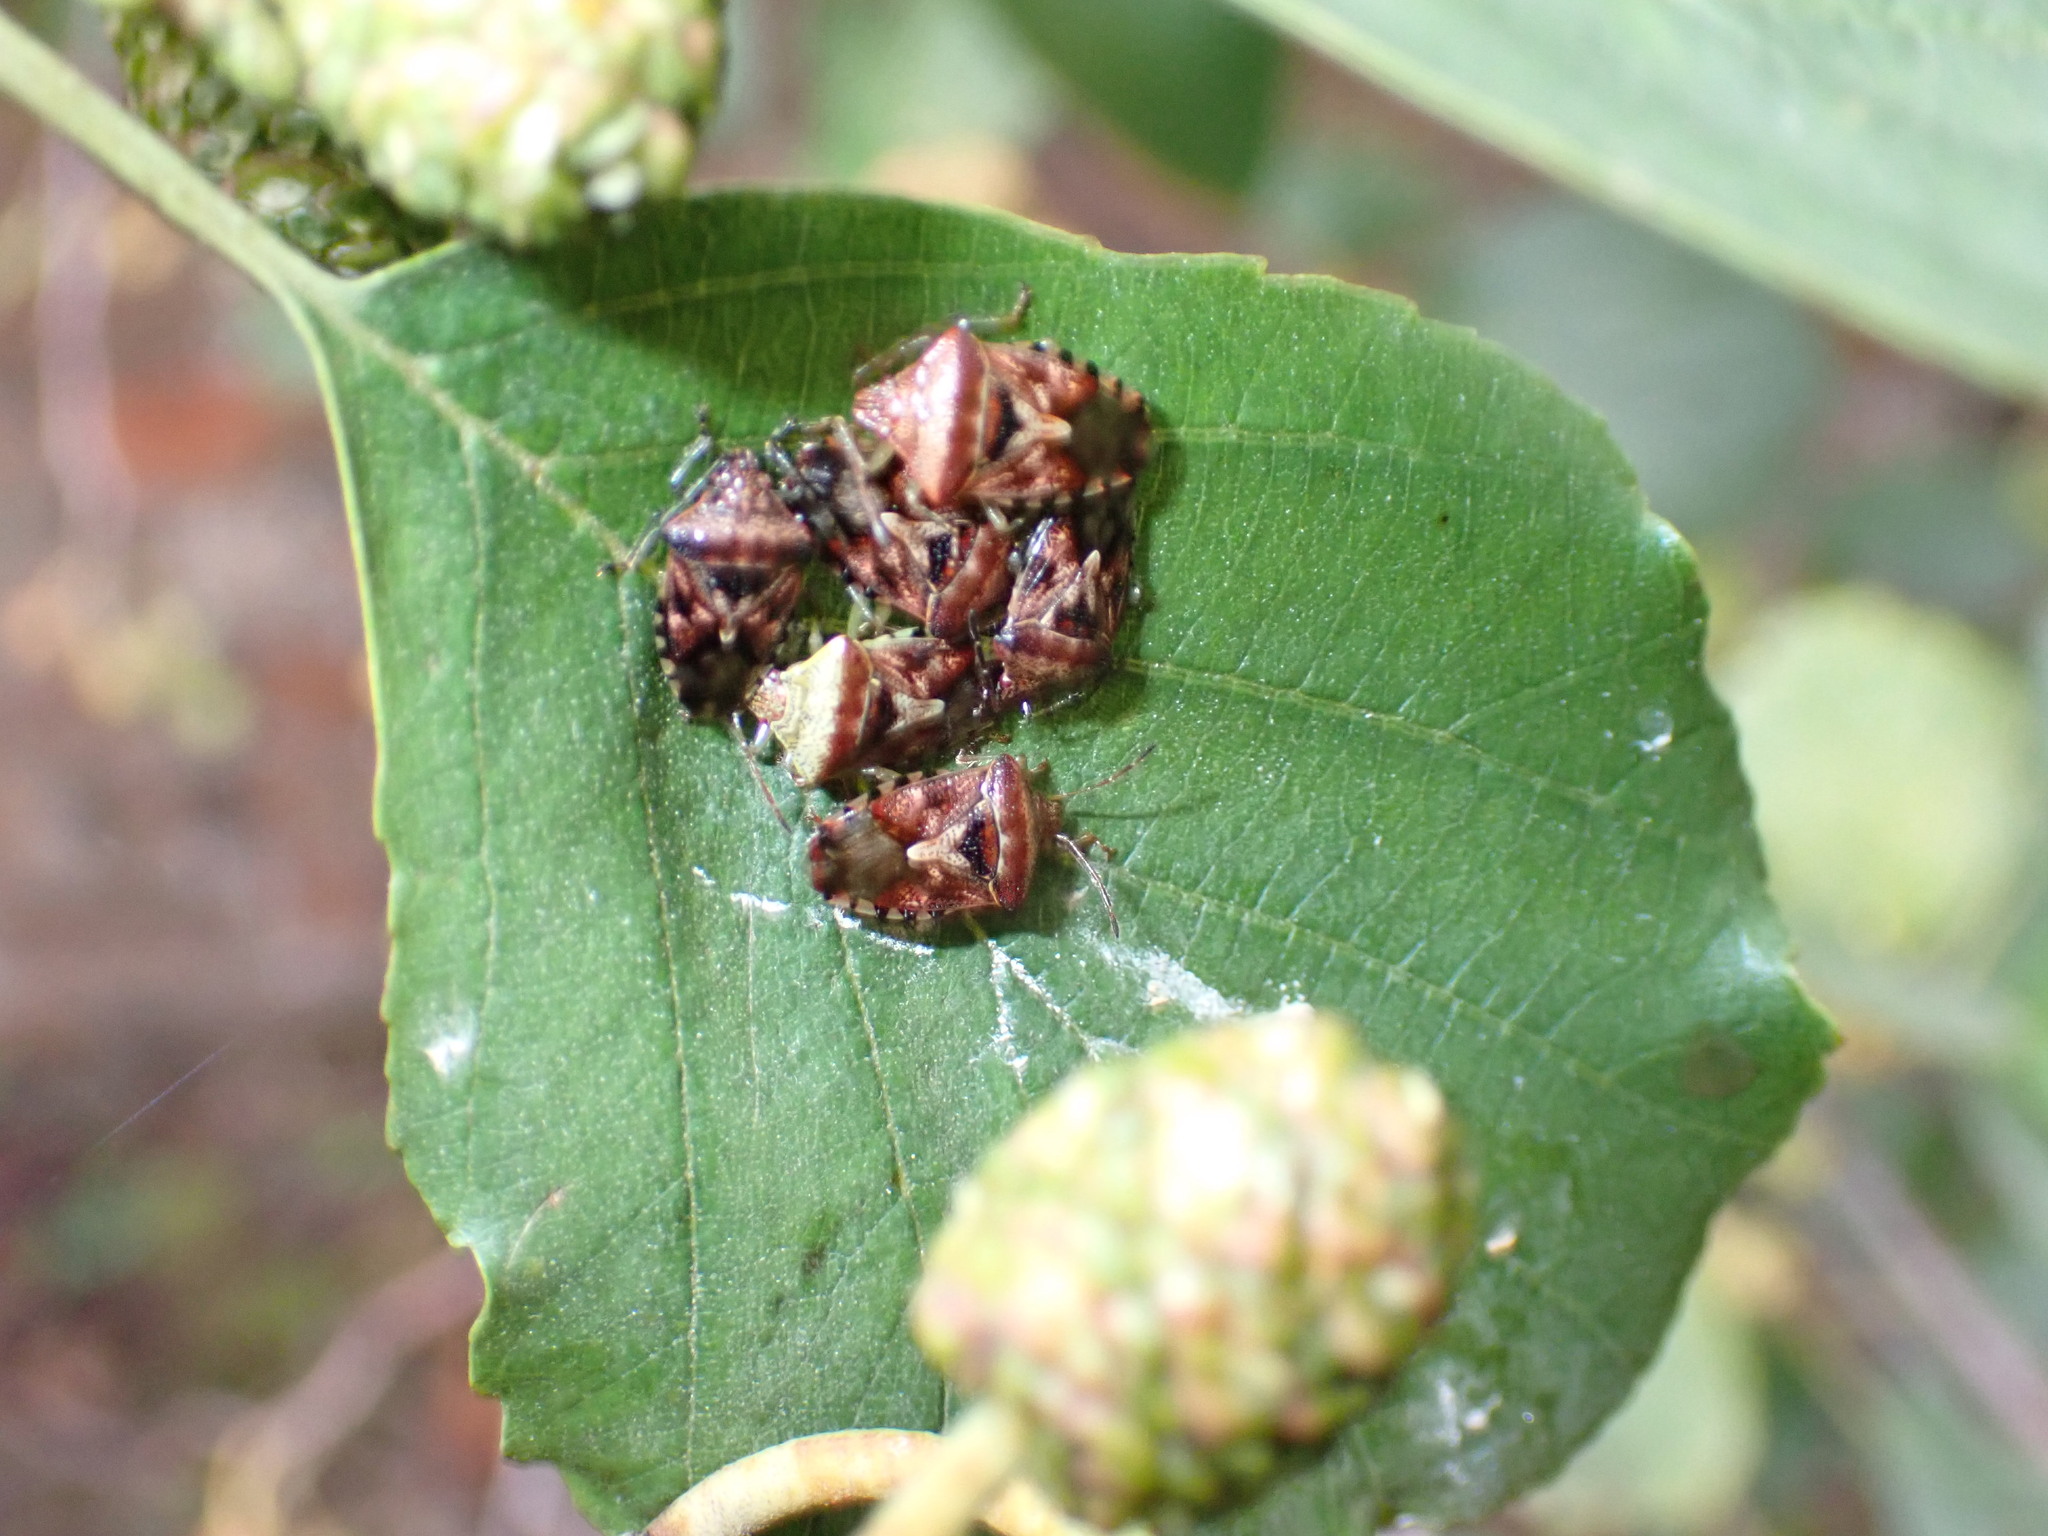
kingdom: Animalia
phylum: Arthropoda
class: Insecta
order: Hemiptera
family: Acanthosomatidae
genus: Elasmucha
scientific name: Elasmucha grisea
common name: Parent bug
